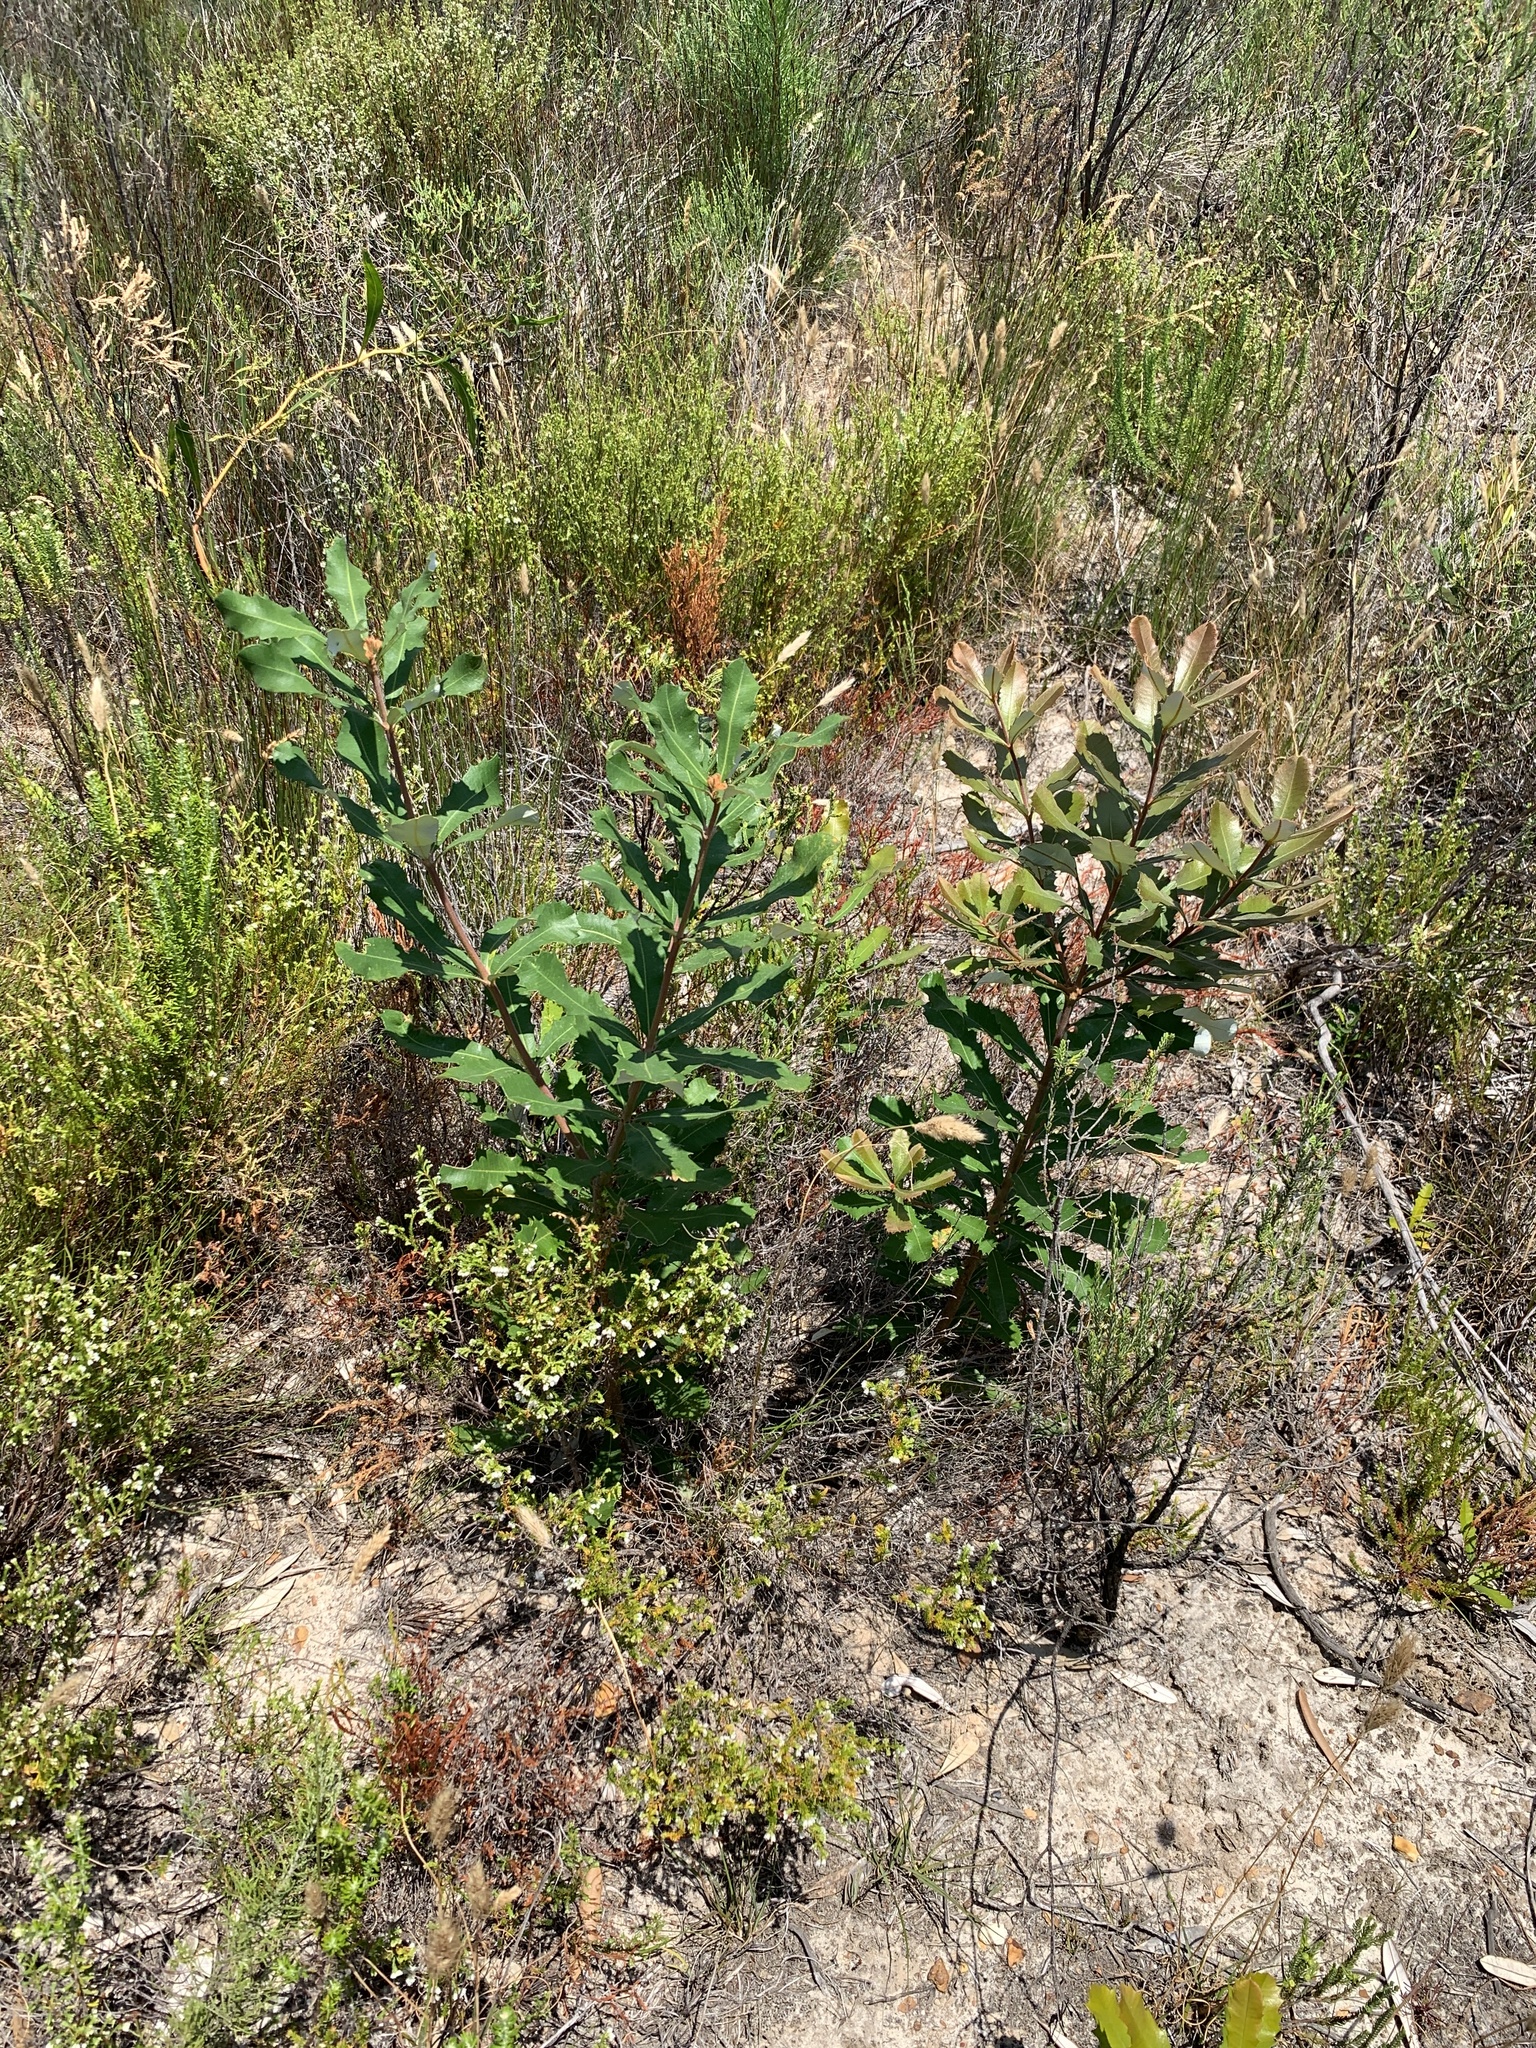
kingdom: Plantae
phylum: Tracheophyta
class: Magnoliopsida
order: Proteales
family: Proteaceae
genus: Banksia
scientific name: Banksia integrifolia
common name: White-honeysuckle
